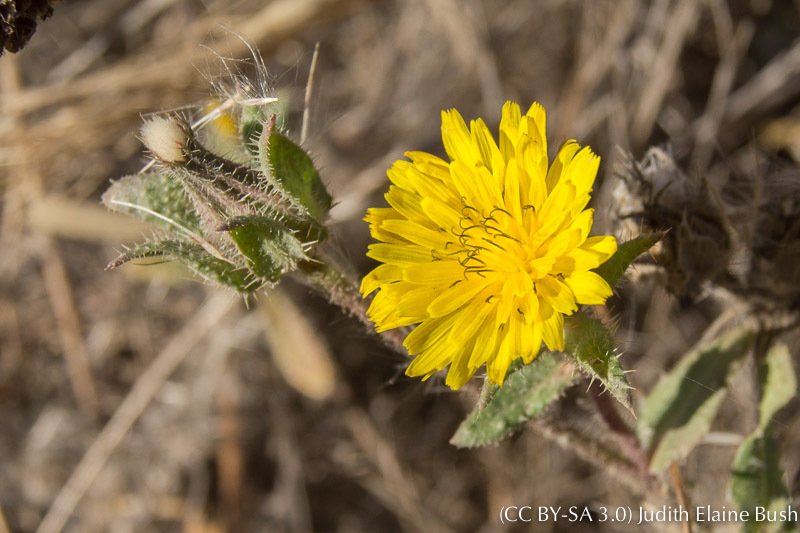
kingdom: Plantae
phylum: Tracheophyta
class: Magnoliopsida
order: Asterales
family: Asteraceae
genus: Helminthotheca
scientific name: Helminthotheca echioides
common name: Ox-tongue
